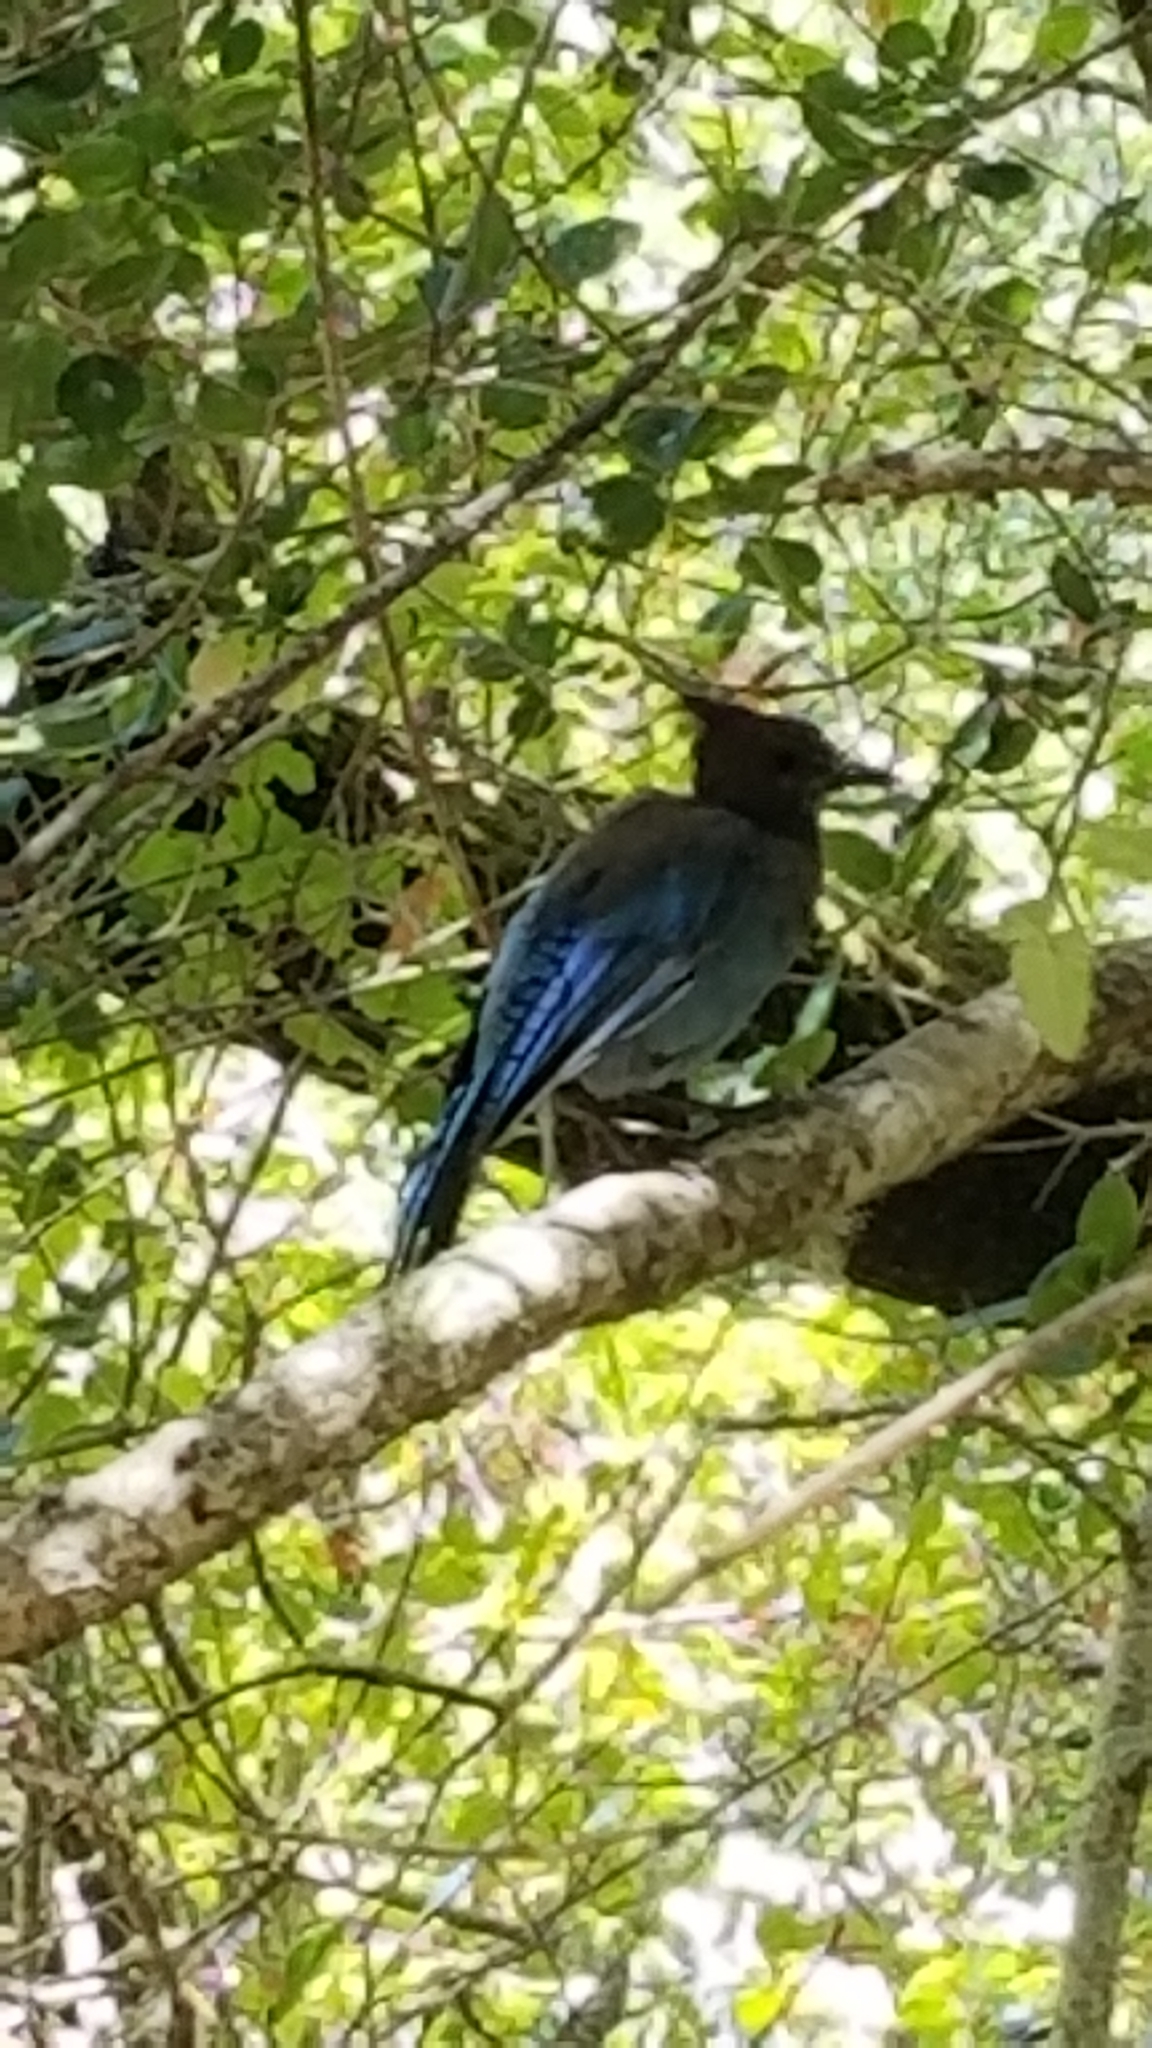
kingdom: Animalia
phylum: Chordata
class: Aves
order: Passeriformes
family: Corvidae
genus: Cyanocitta
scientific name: Cyanocitta stelleri
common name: Steller's jay
